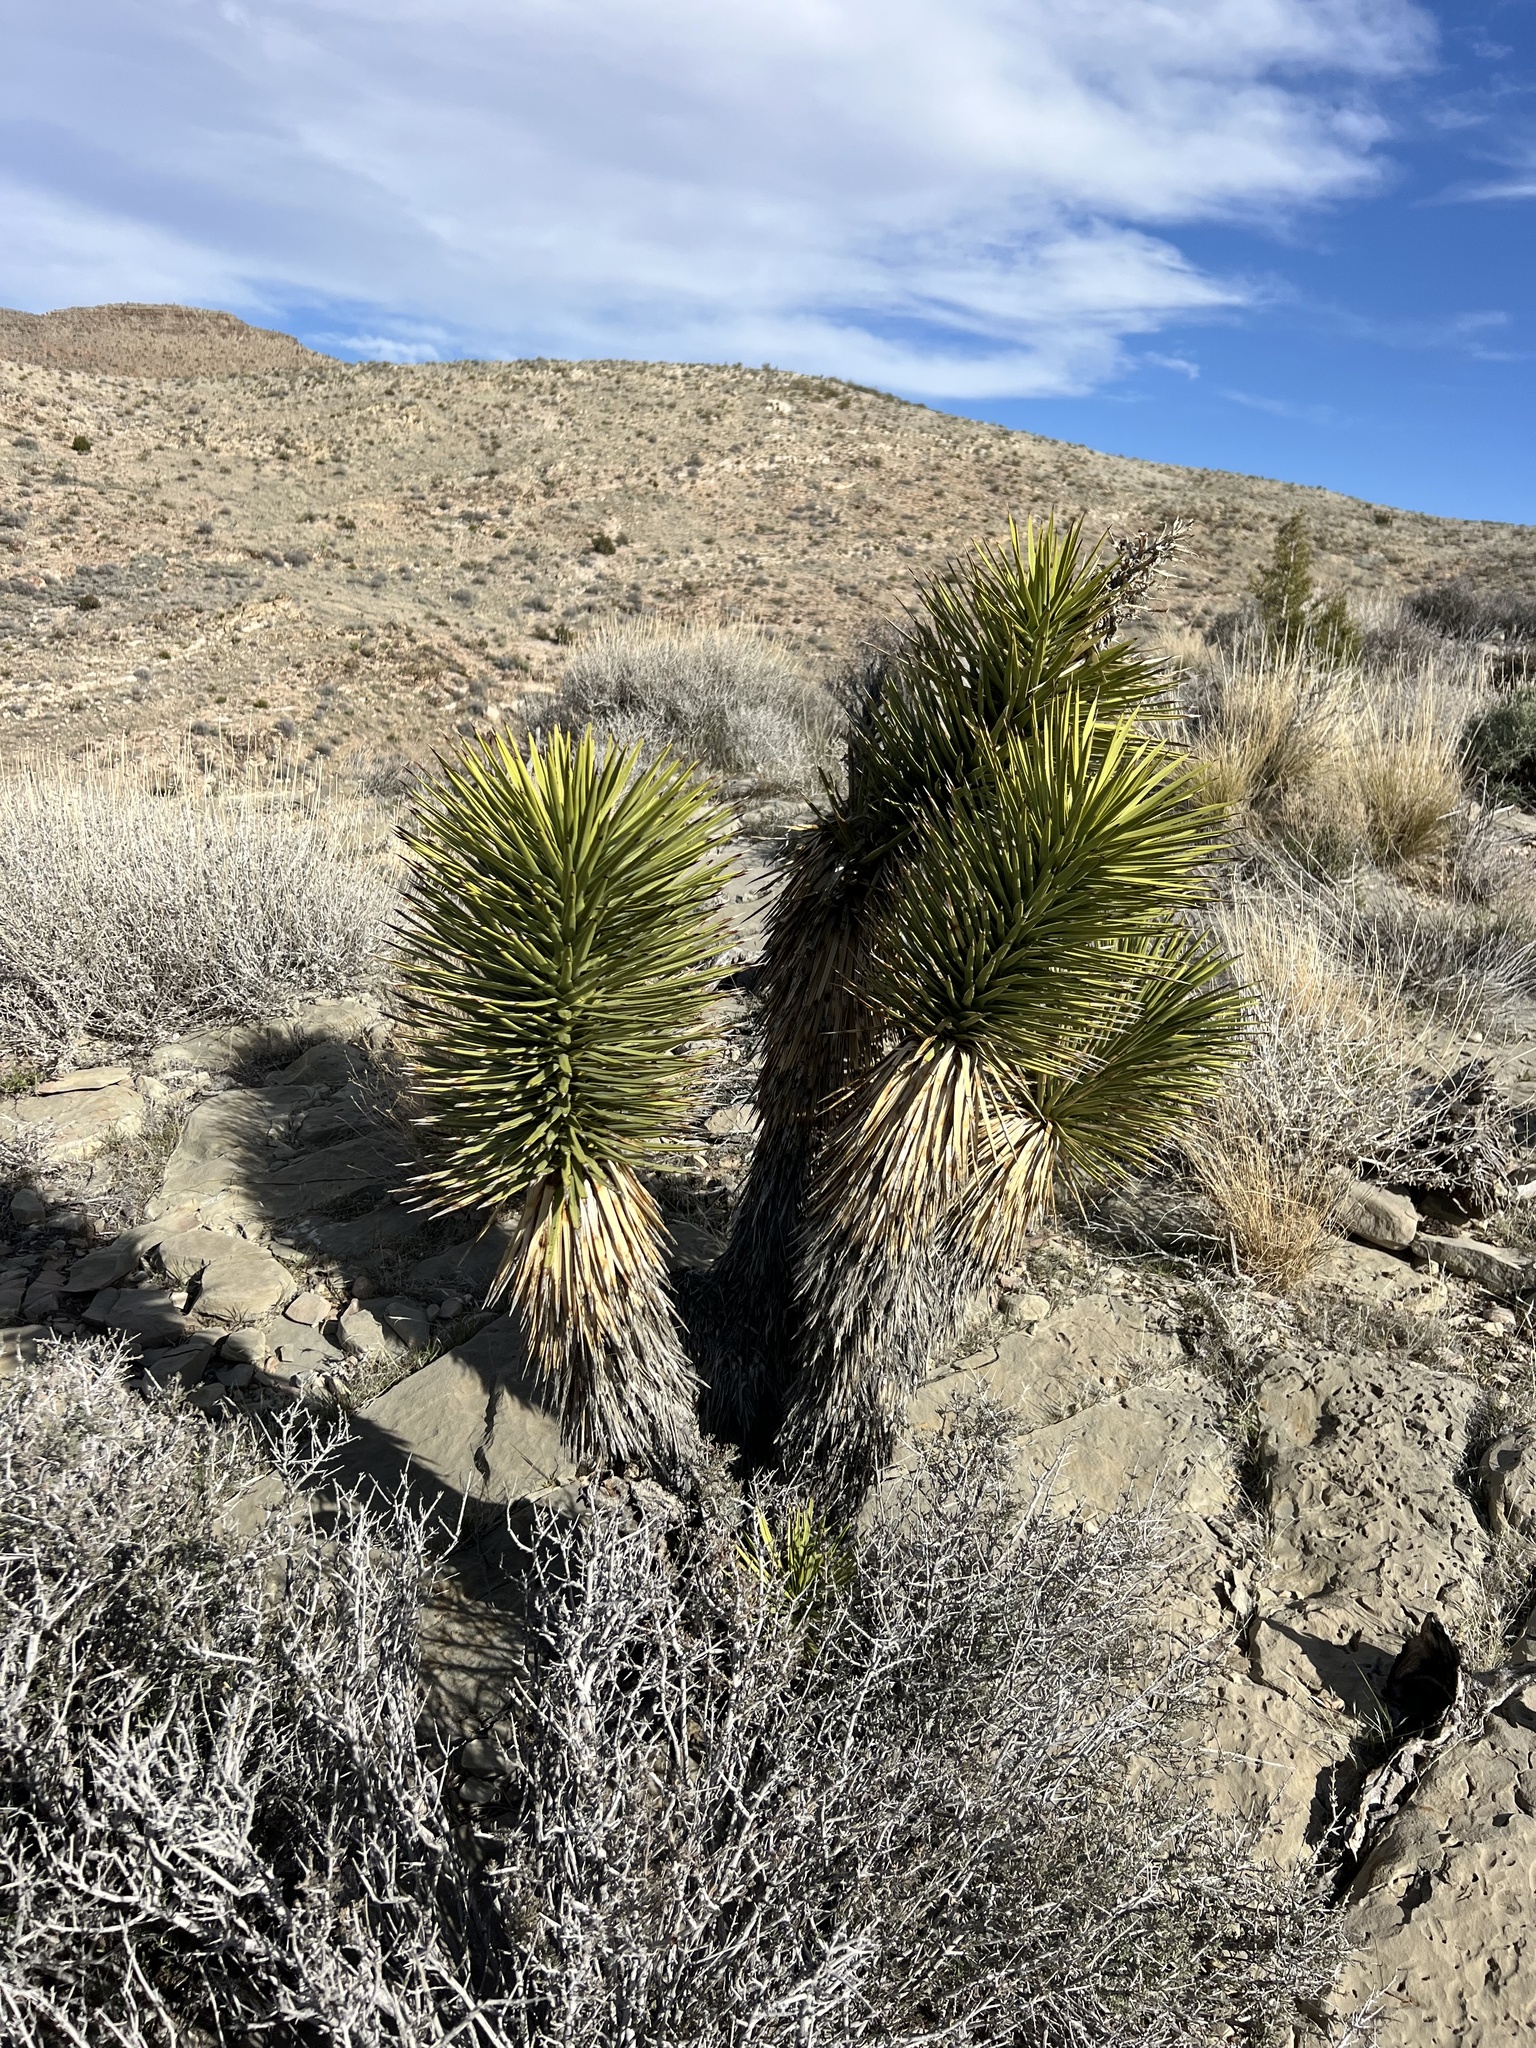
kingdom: Plantae
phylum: Tracheophyta
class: Liliopsida
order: Asparagales
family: Asparagaceae
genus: Yucca
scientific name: Yucca brevifolia
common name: Joshua tree
